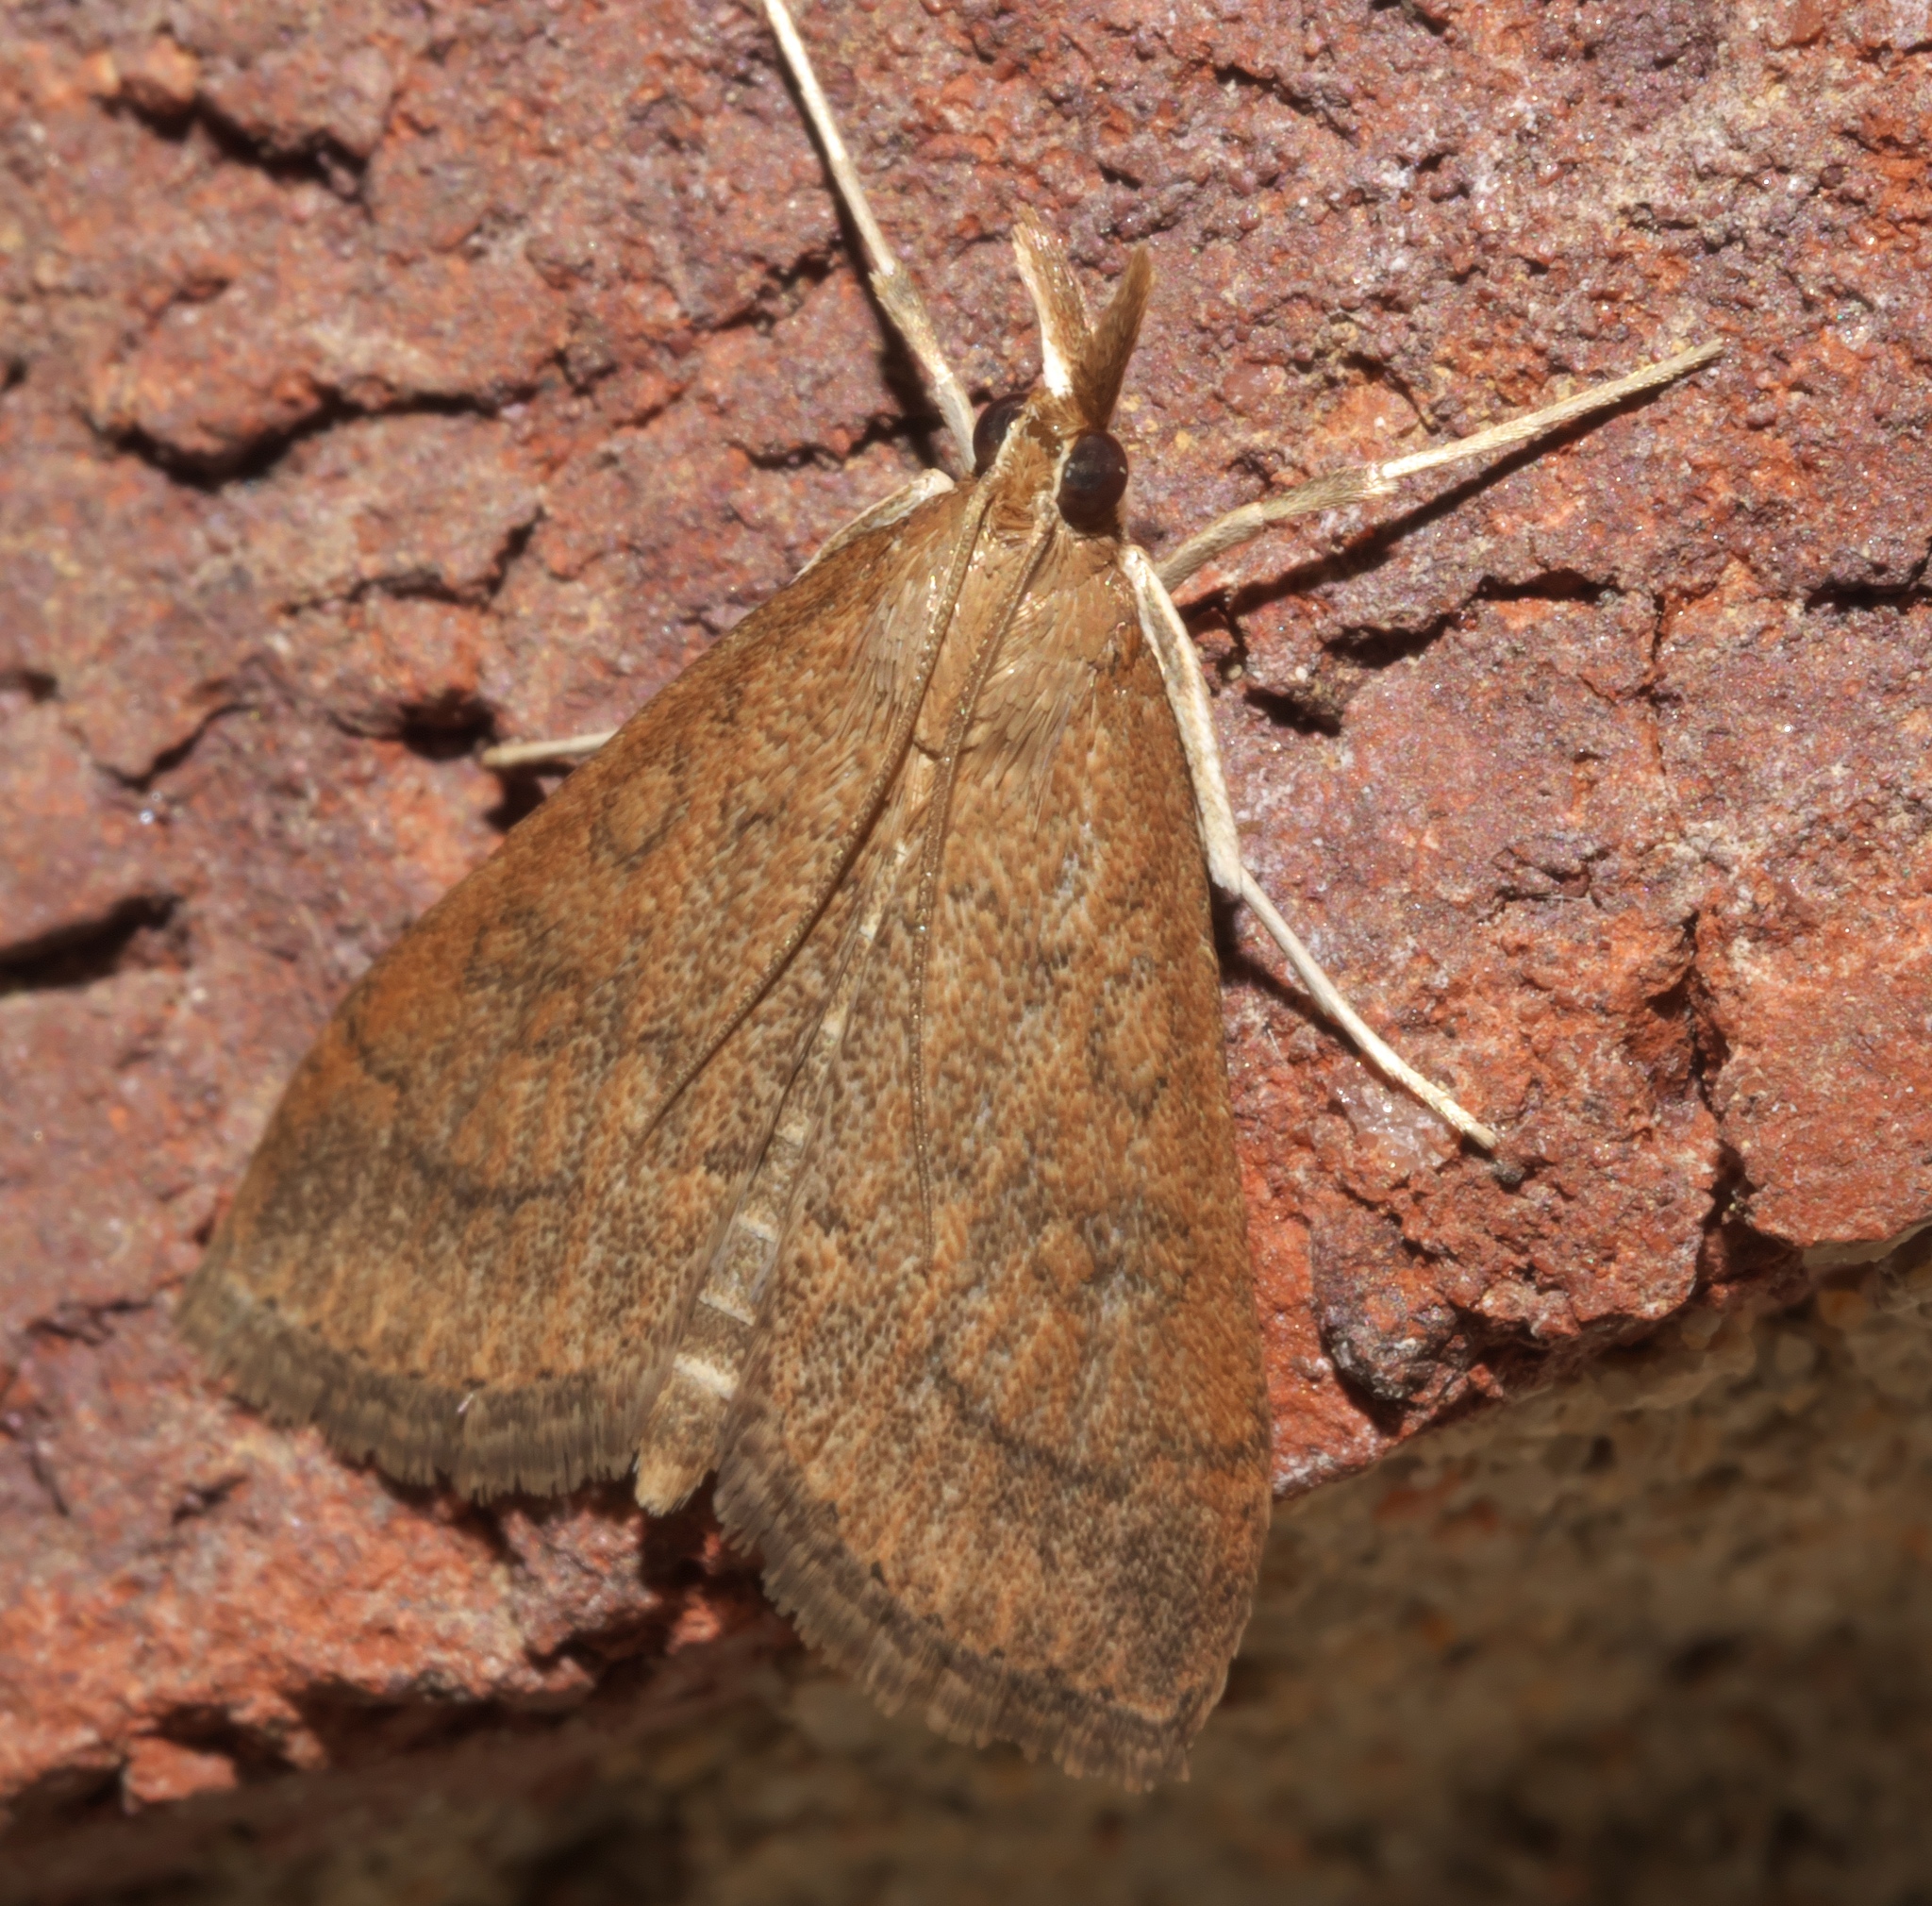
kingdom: Animalia
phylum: Arthropoda
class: Insecta
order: Lepidoptera
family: Crambidae
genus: Udea
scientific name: Udea rubigalis
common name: Celery leaftier moth
